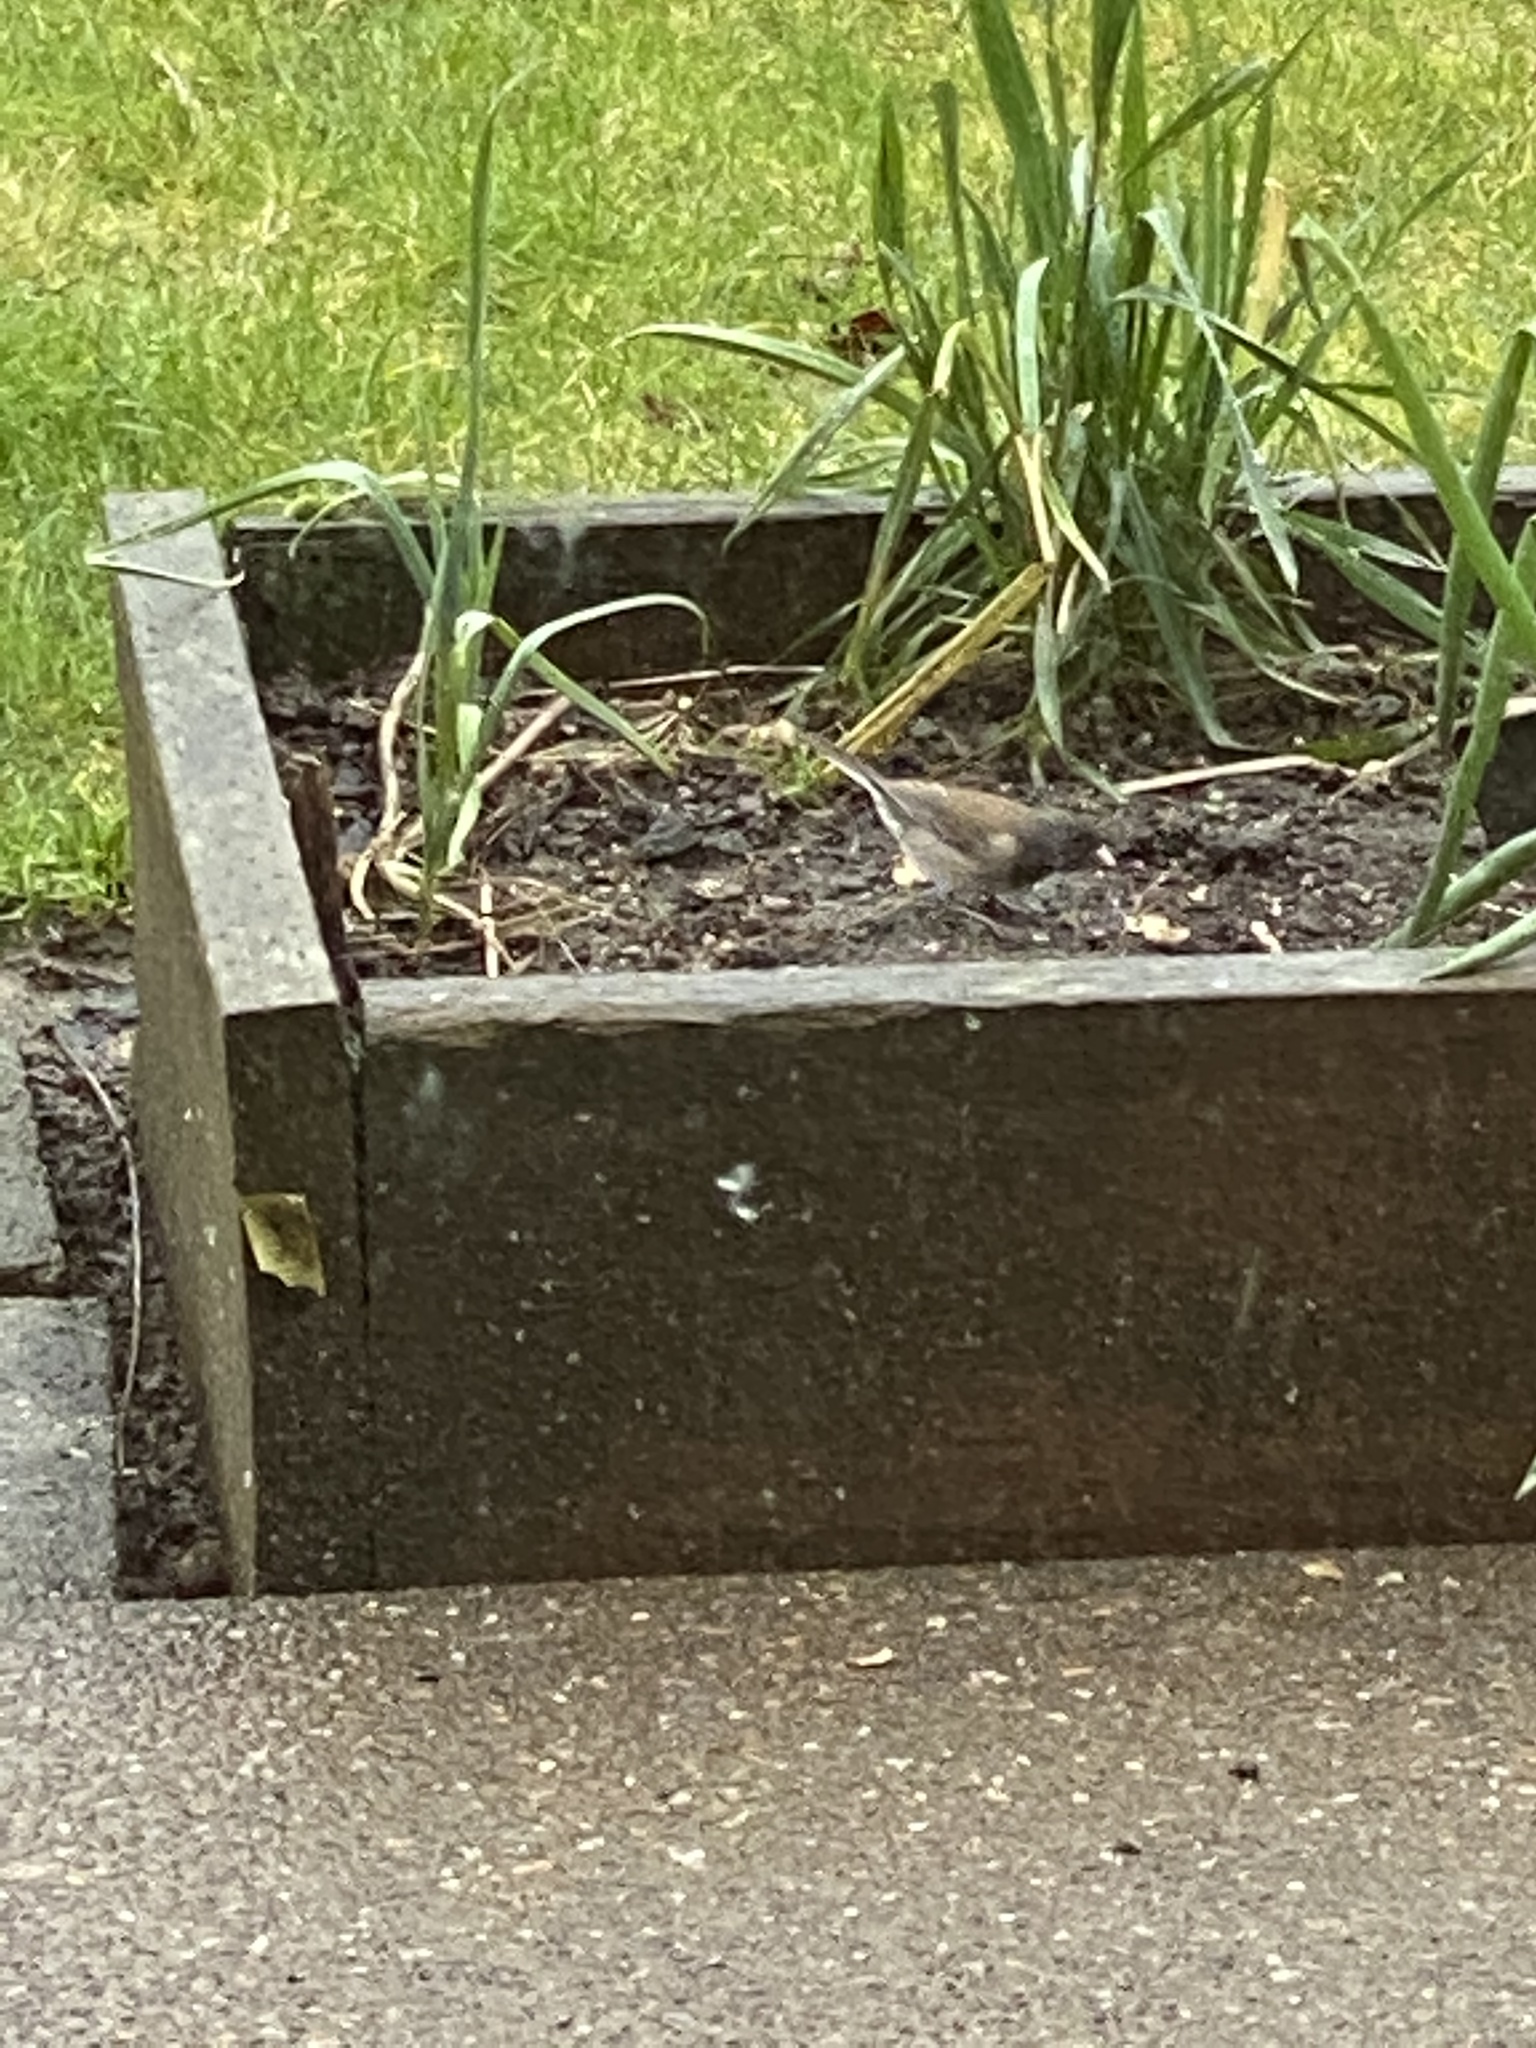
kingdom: Animalia
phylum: Chordata
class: Aves
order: Passeriformes
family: Passerellidae
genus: Junco
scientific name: Junco hyemalis
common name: Dark-eyed junco
